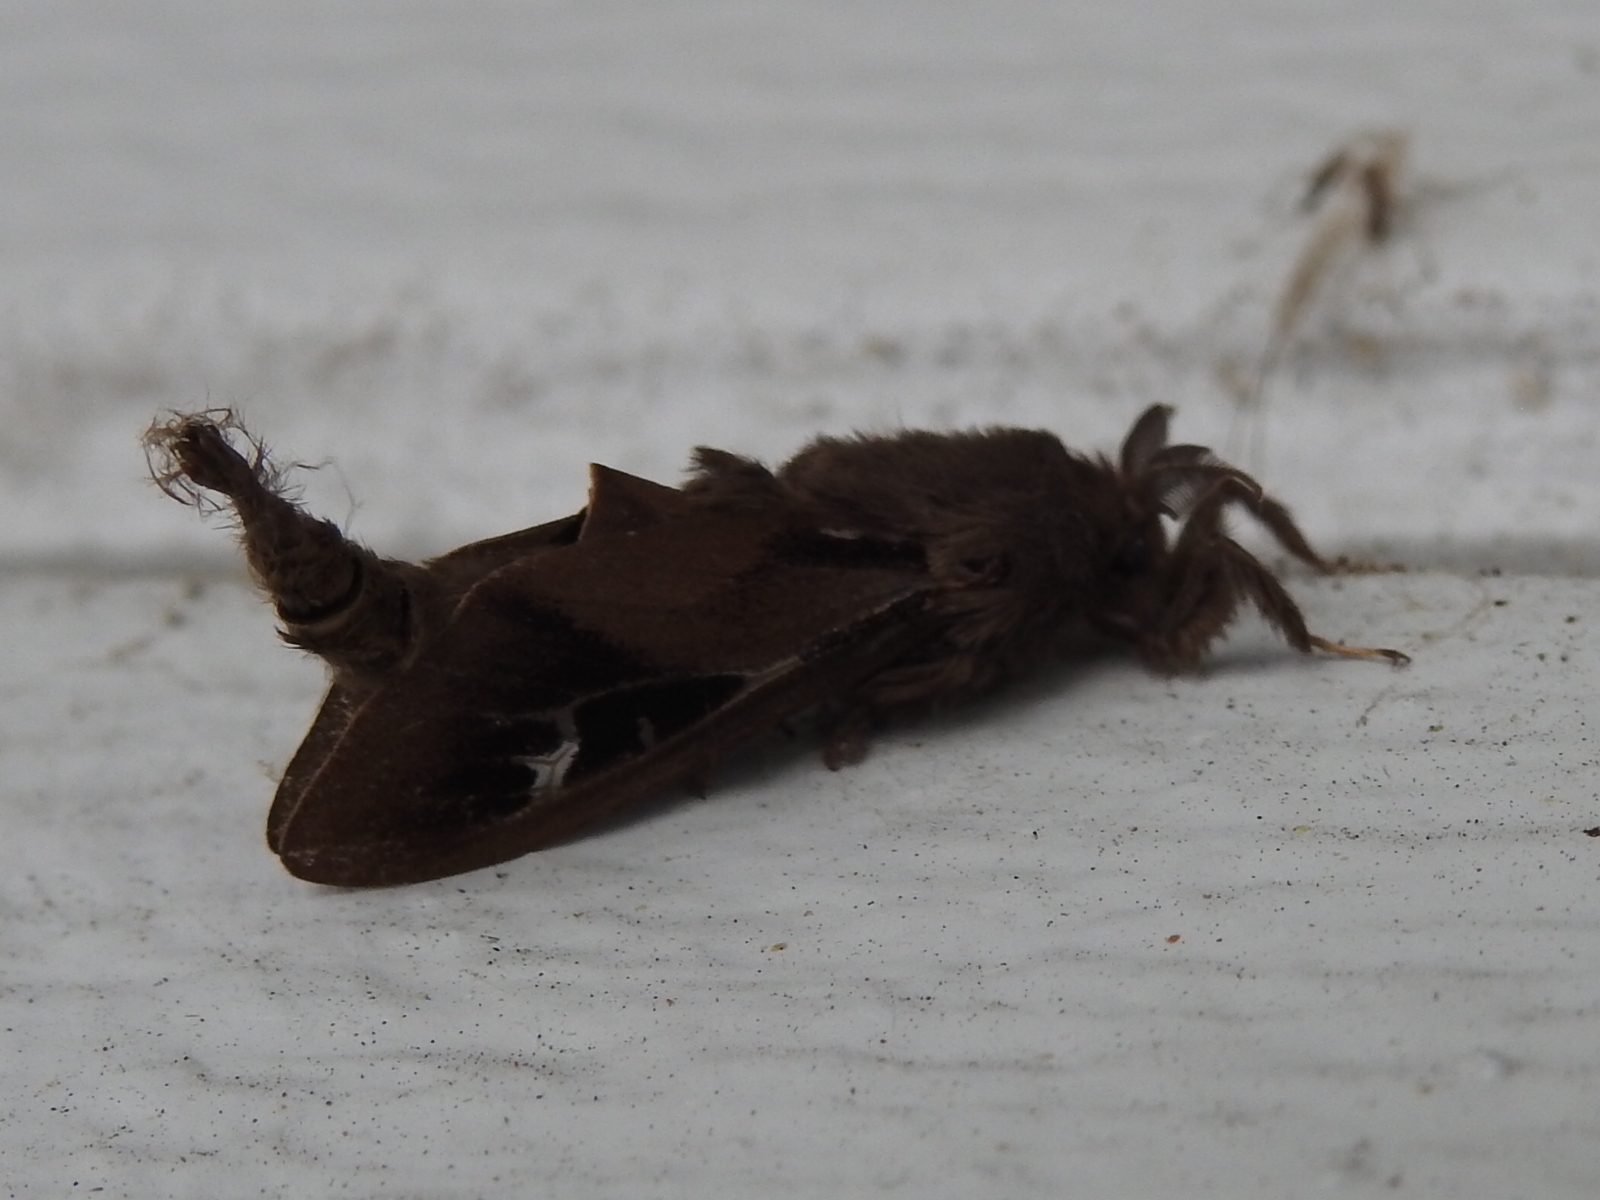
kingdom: Animalia
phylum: Arthropoda
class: Insecta
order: Lepidoptera
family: Psychidae
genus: Oiketicus
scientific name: Oiketicus
